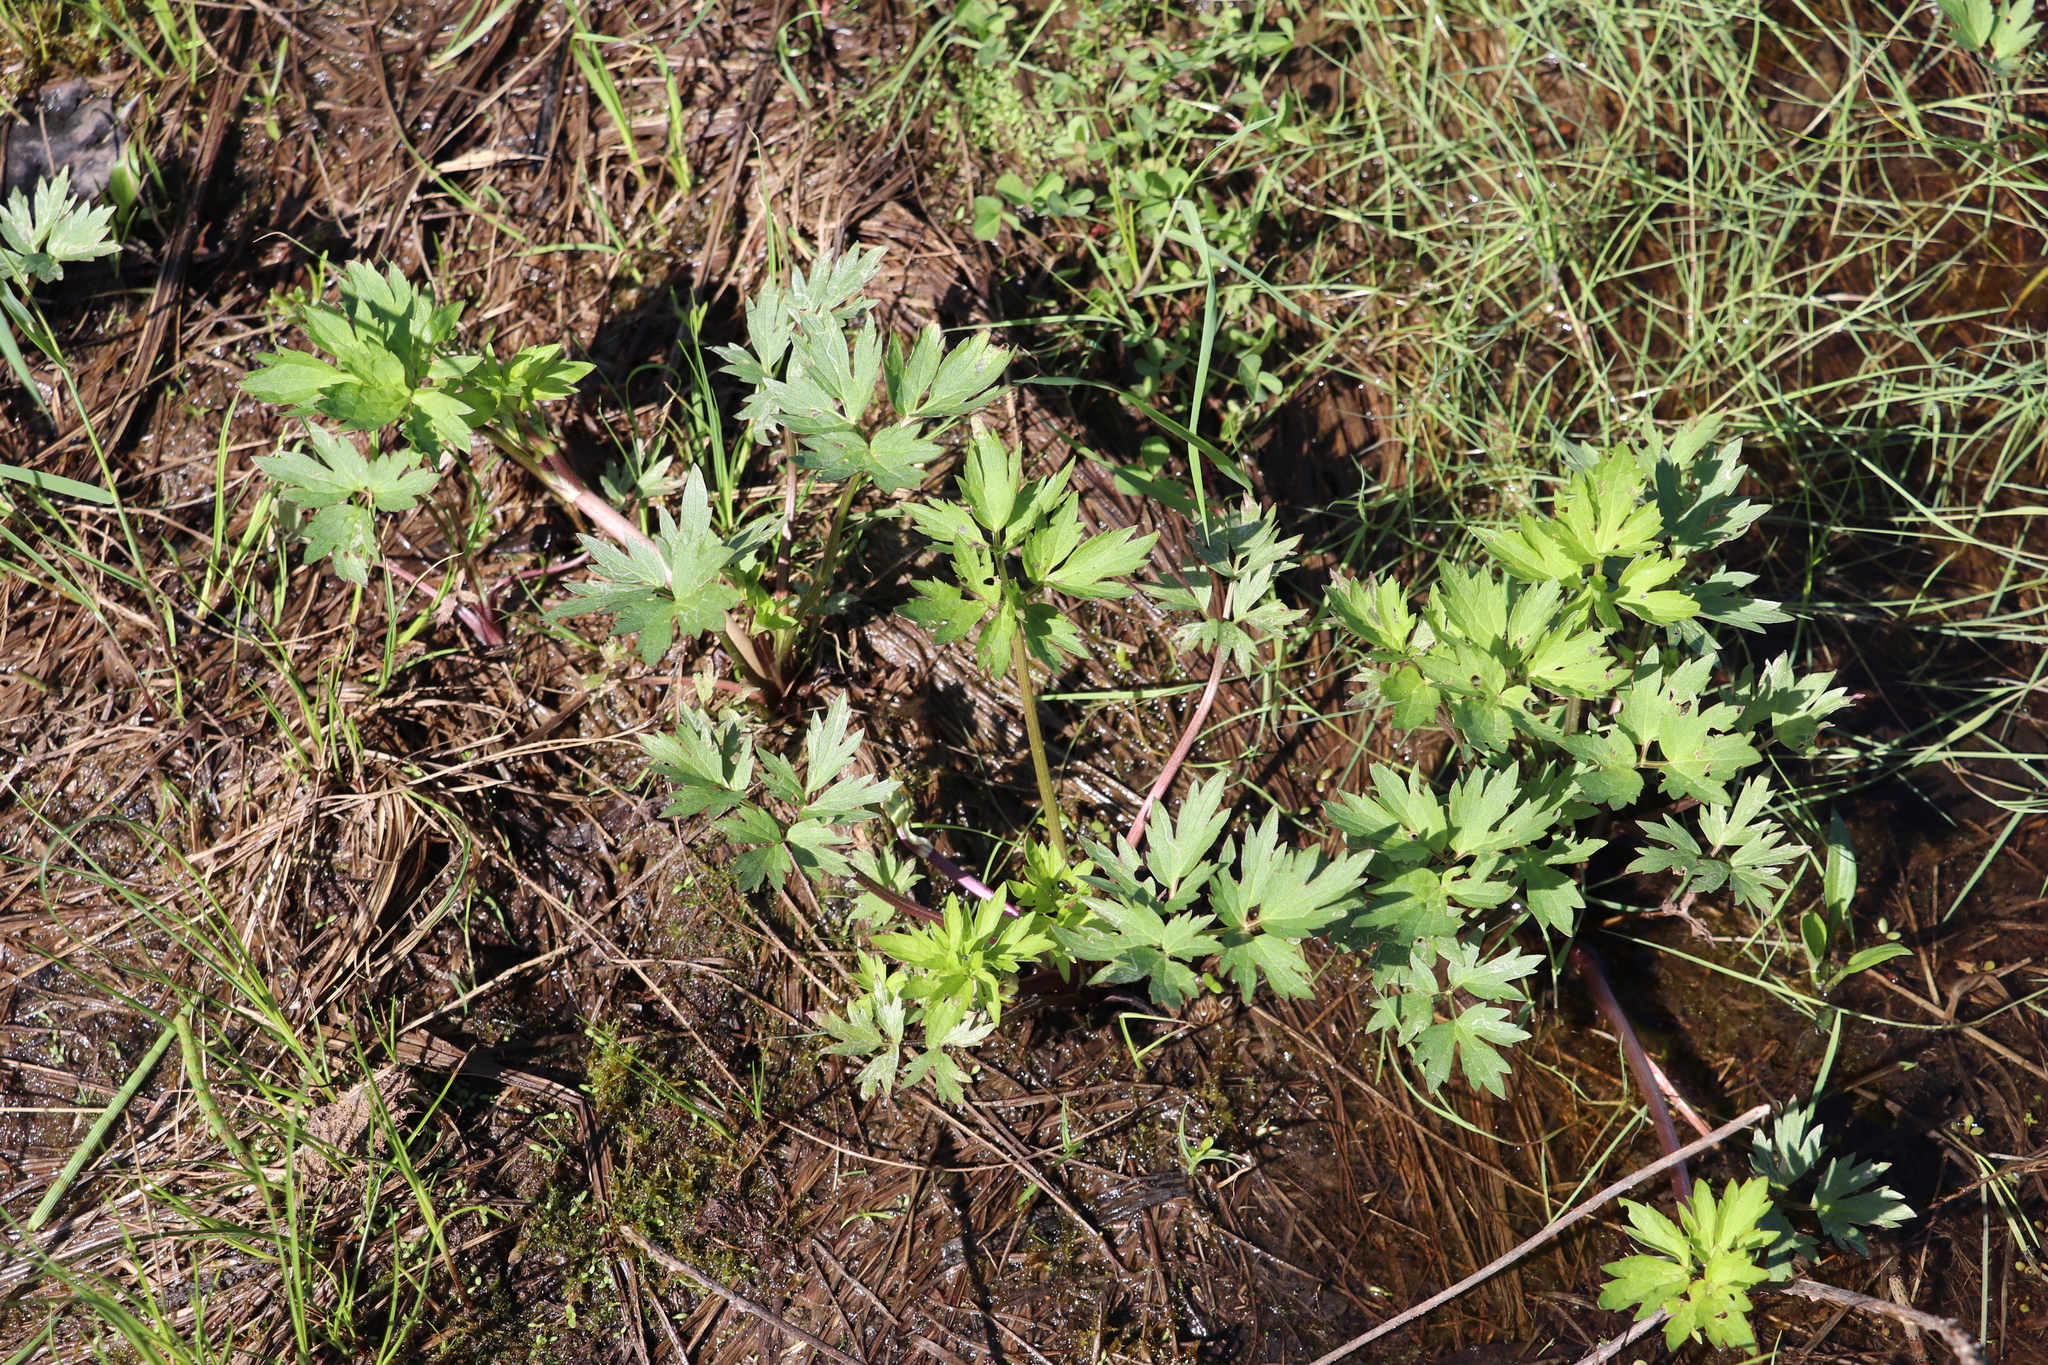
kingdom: Plantae
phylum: Tracheophyta
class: Magnoliopsida
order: Ranunculales
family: Ranunculaceae
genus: Ranunculus
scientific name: Ranunculus repens
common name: Creeping buttercup
